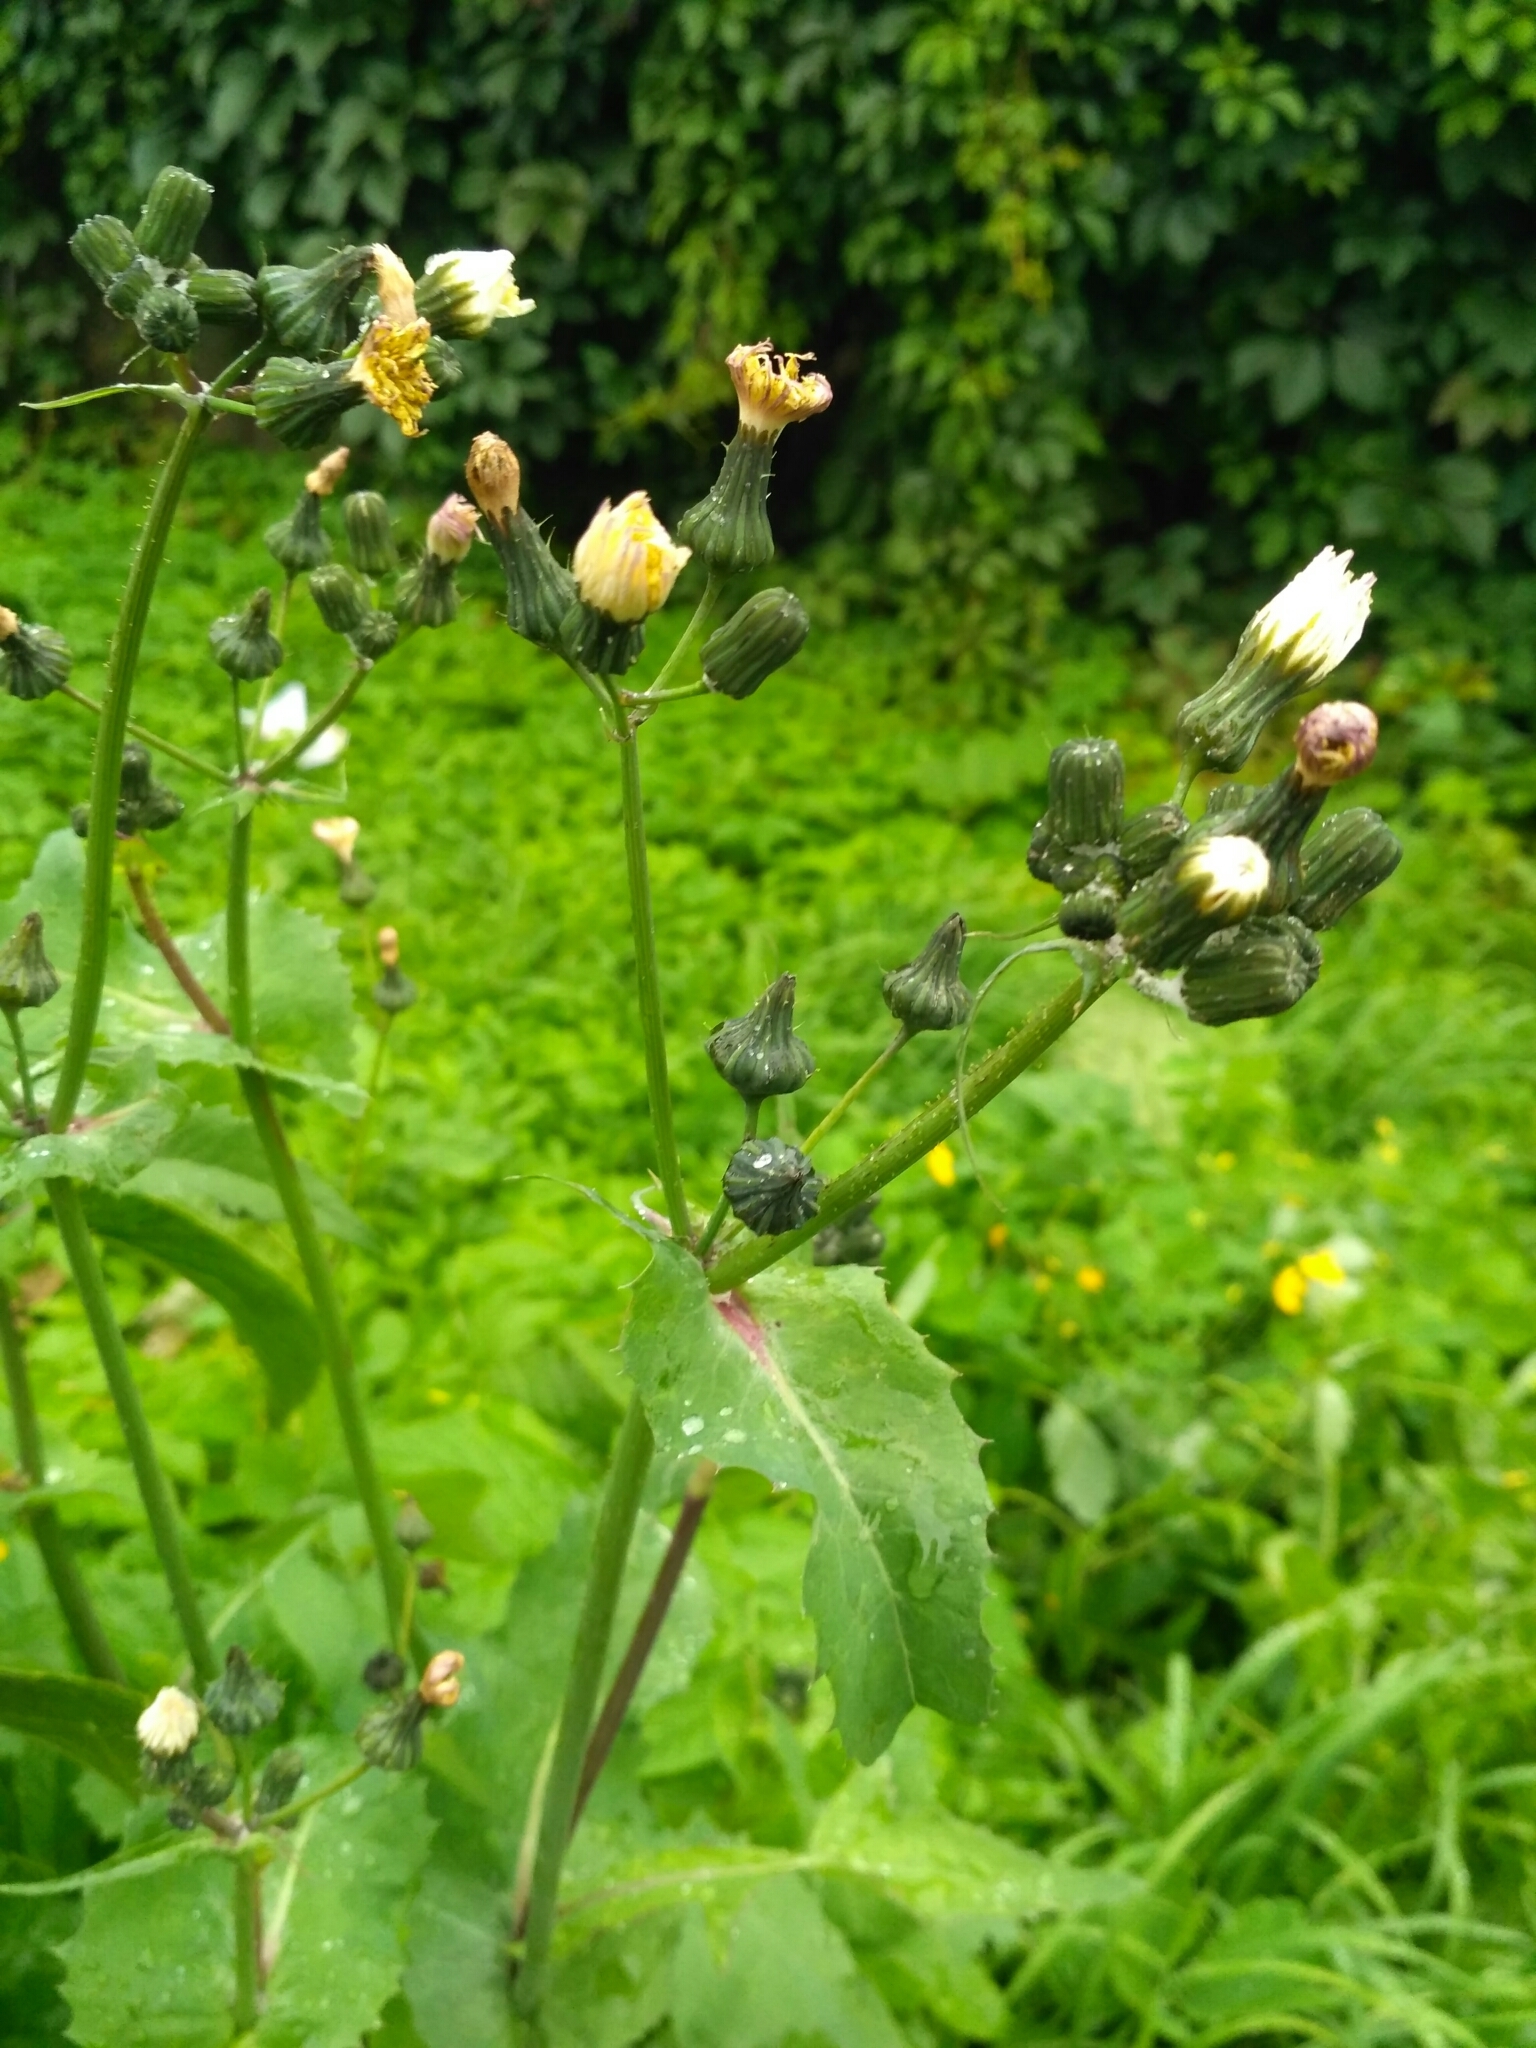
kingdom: Plantae
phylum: Tracheophyta
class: Magnoliopsida
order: Asterales
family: Asteraceae
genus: Sonchus
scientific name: Sonchus oleraceus
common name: Common sowthistle
